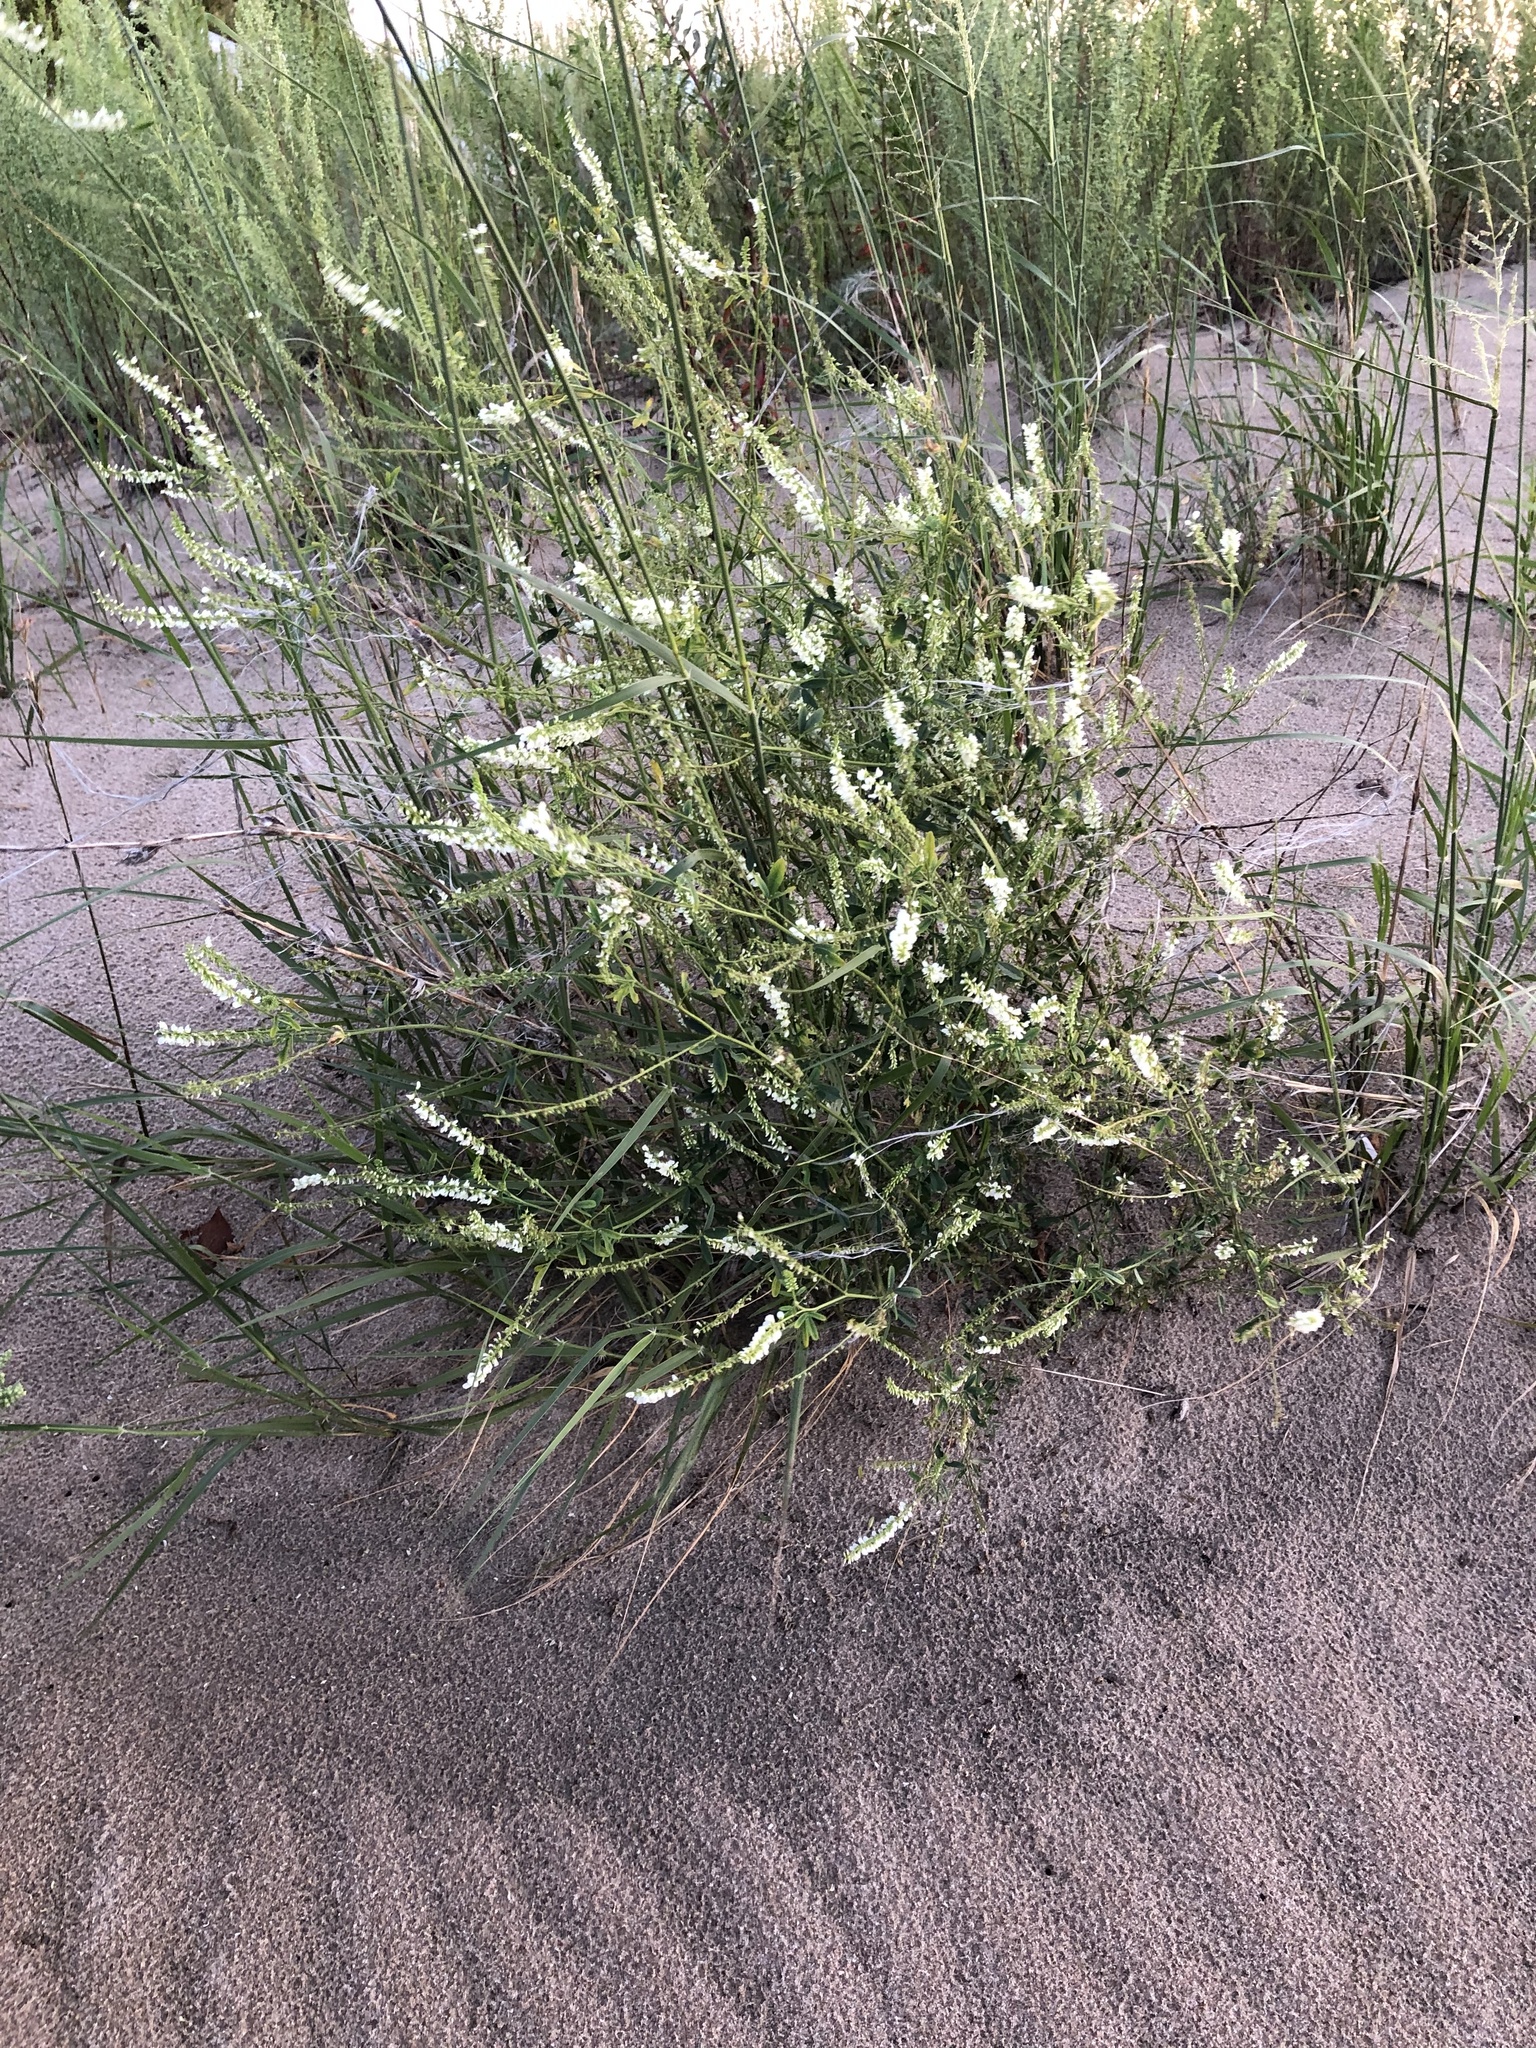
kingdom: Plantae
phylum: Tracheophyta
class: Magnoliopsida
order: Fabales
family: Fabaceae
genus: Melilotus
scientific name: Melilotus albus
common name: White melilot
